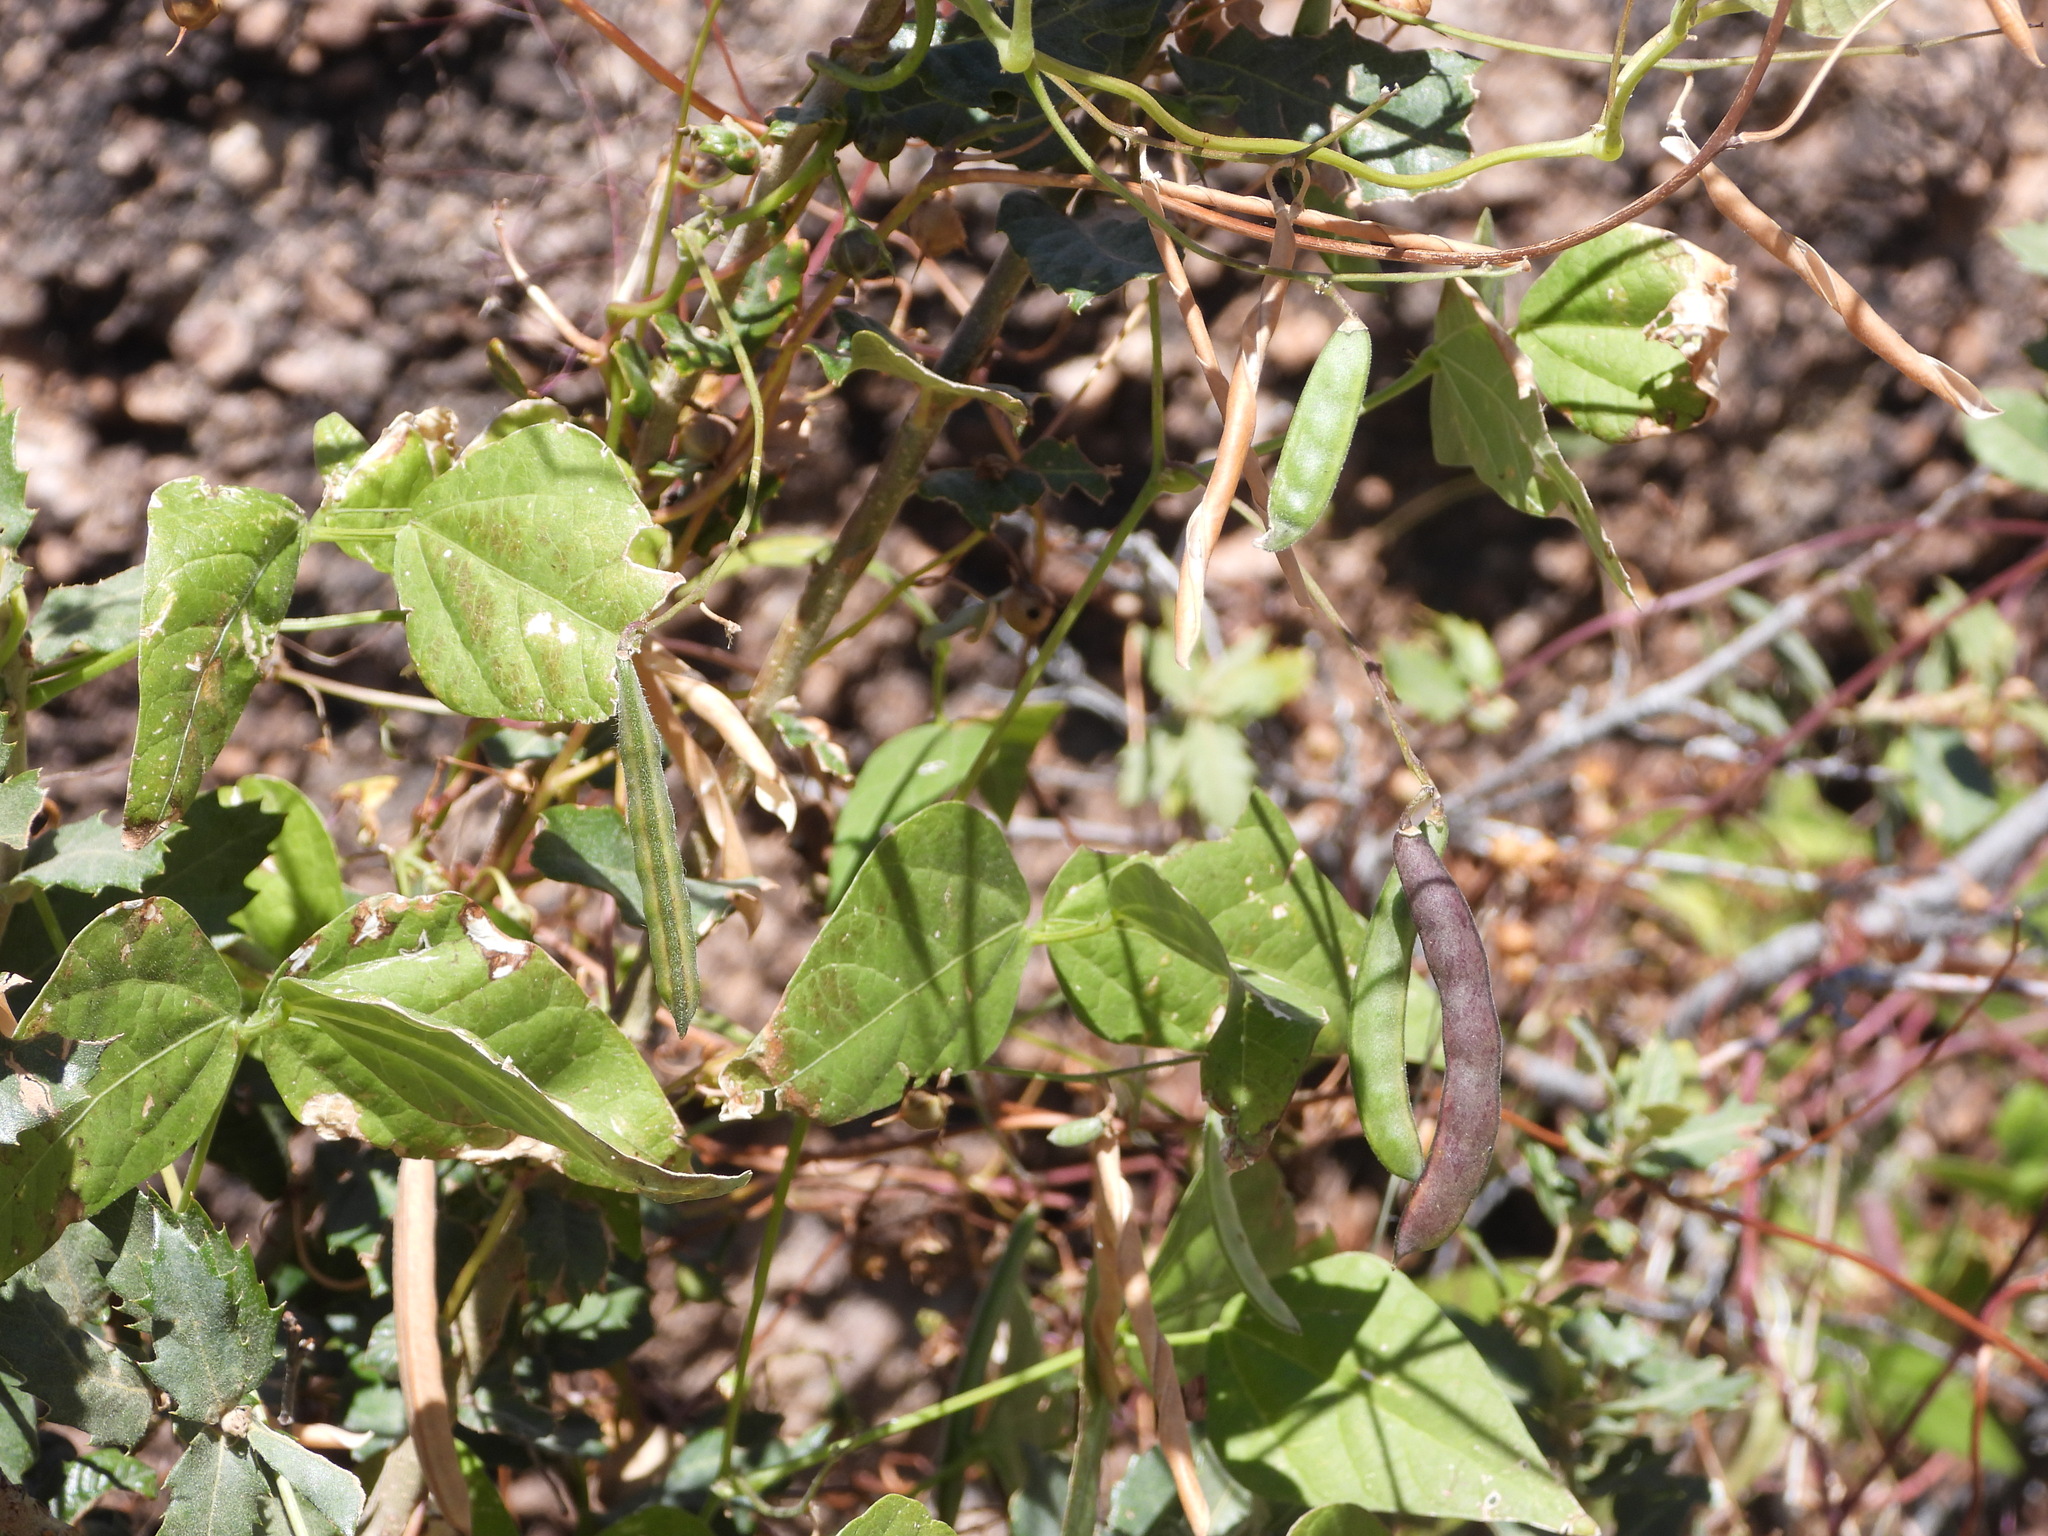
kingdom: Plantae
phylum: Tracheophyta
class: Magnoliopsida
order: Fabales
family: Fabaceae
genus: Phaseolus
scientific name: Phaseolus acutifolius
